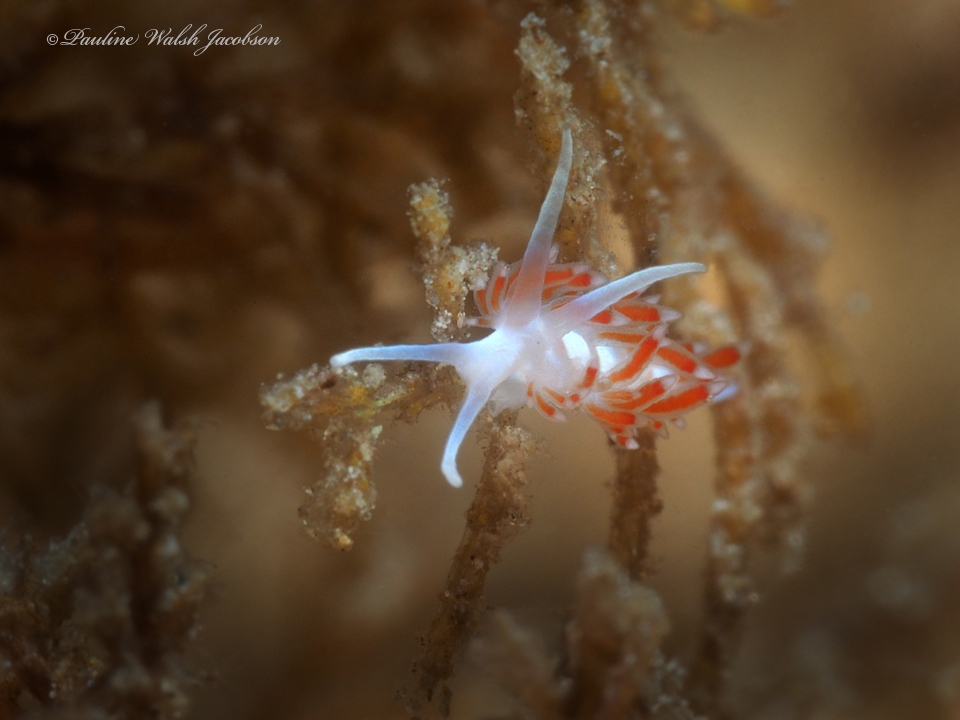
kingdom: Animalia
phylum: Mollusca
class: Gastropoda
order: Nudibranchia
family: Flabellinidae
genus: Flabellina
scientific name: Flabellina dushia
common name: Dushia flabellina
